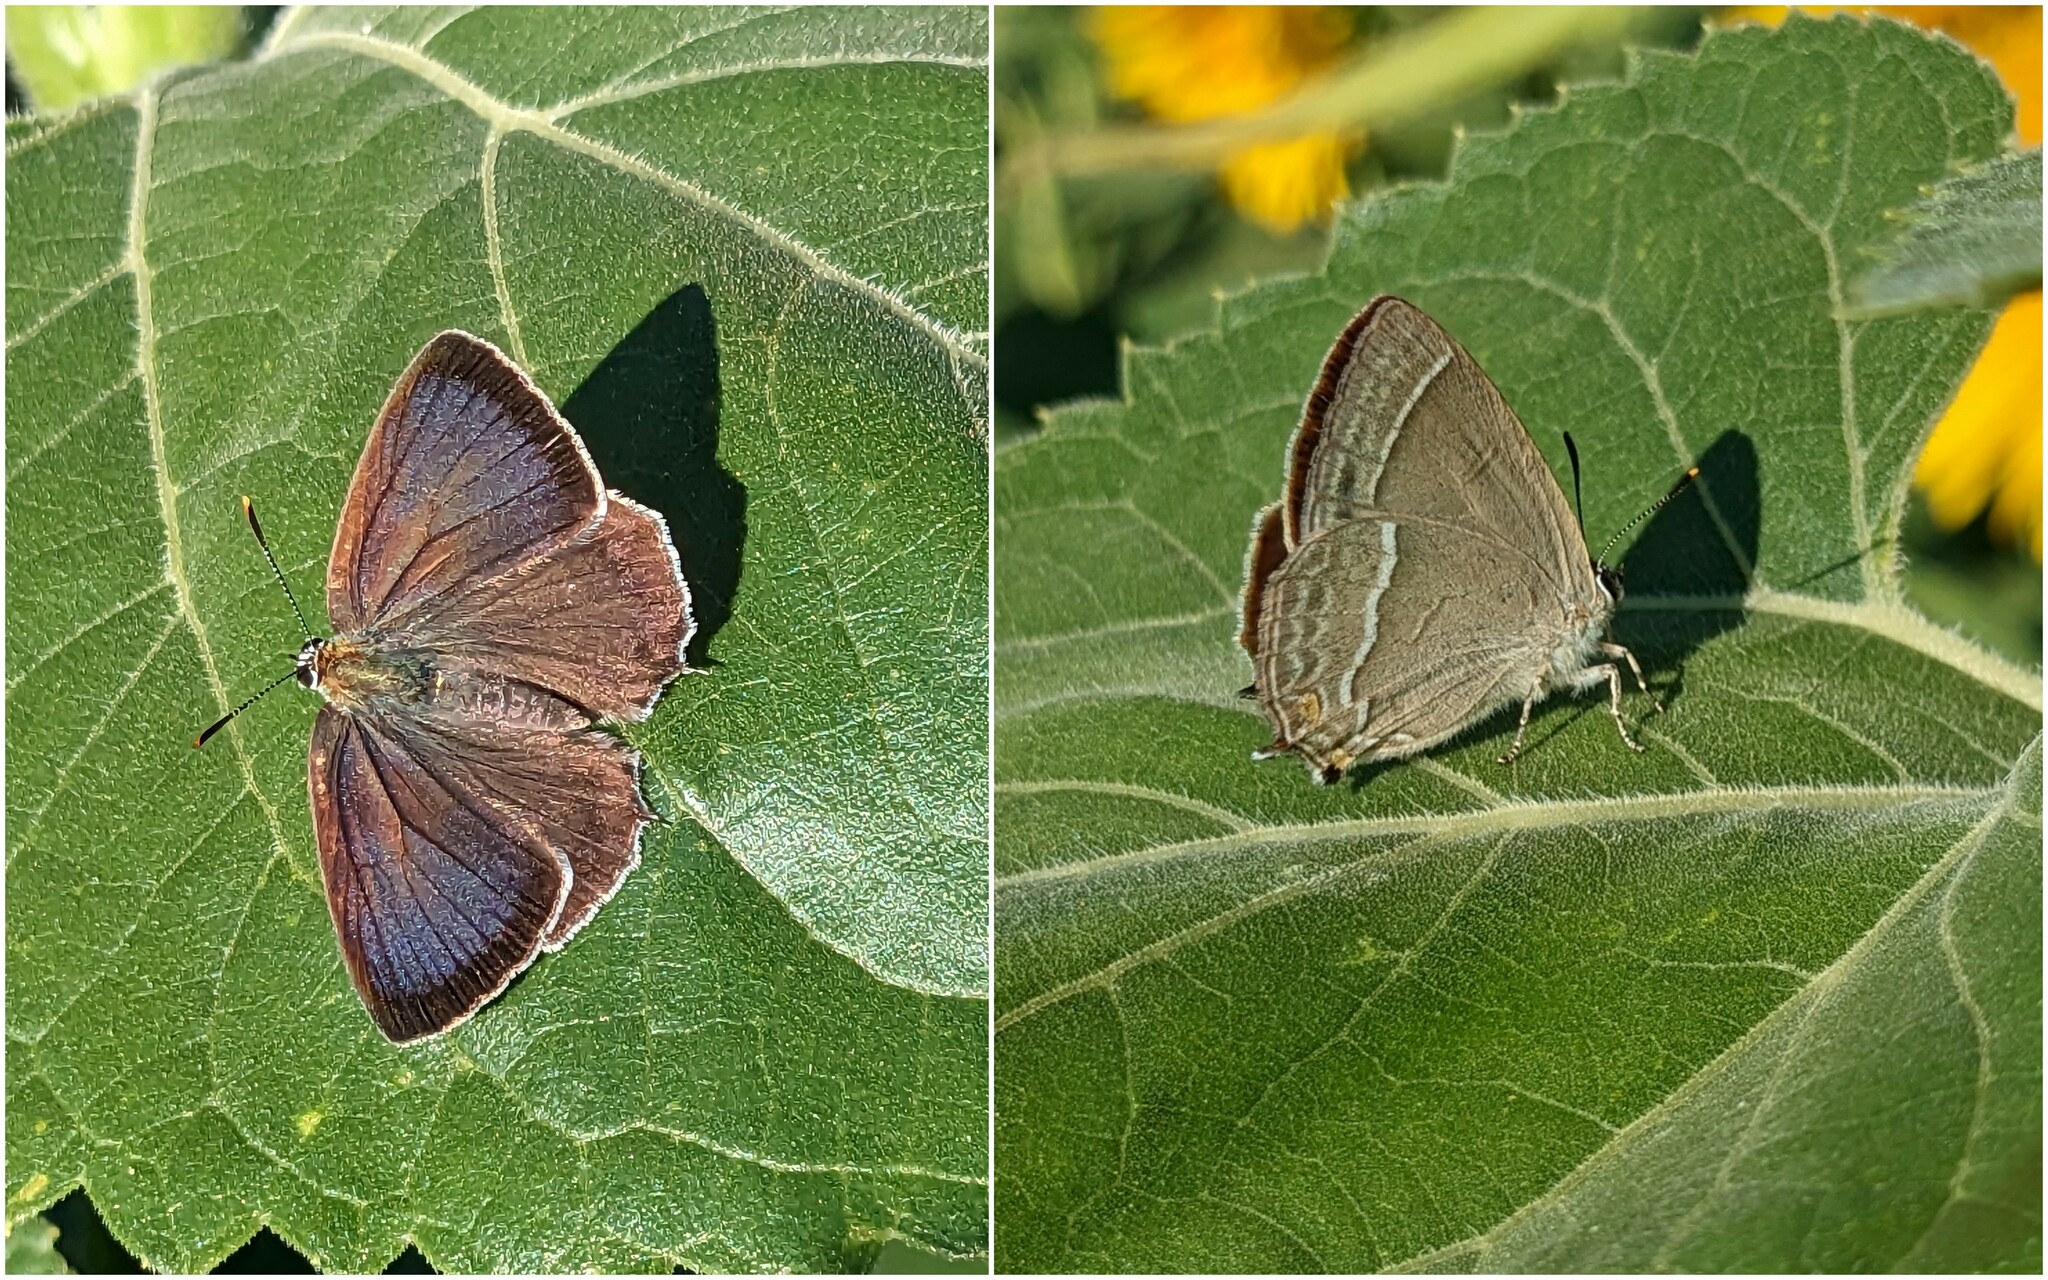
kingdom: Animalia
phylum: Arthropoda
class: Insecta
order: Lepidoptera
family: Lycaenidae
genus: Quercusia
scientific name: Quercusia quercus
